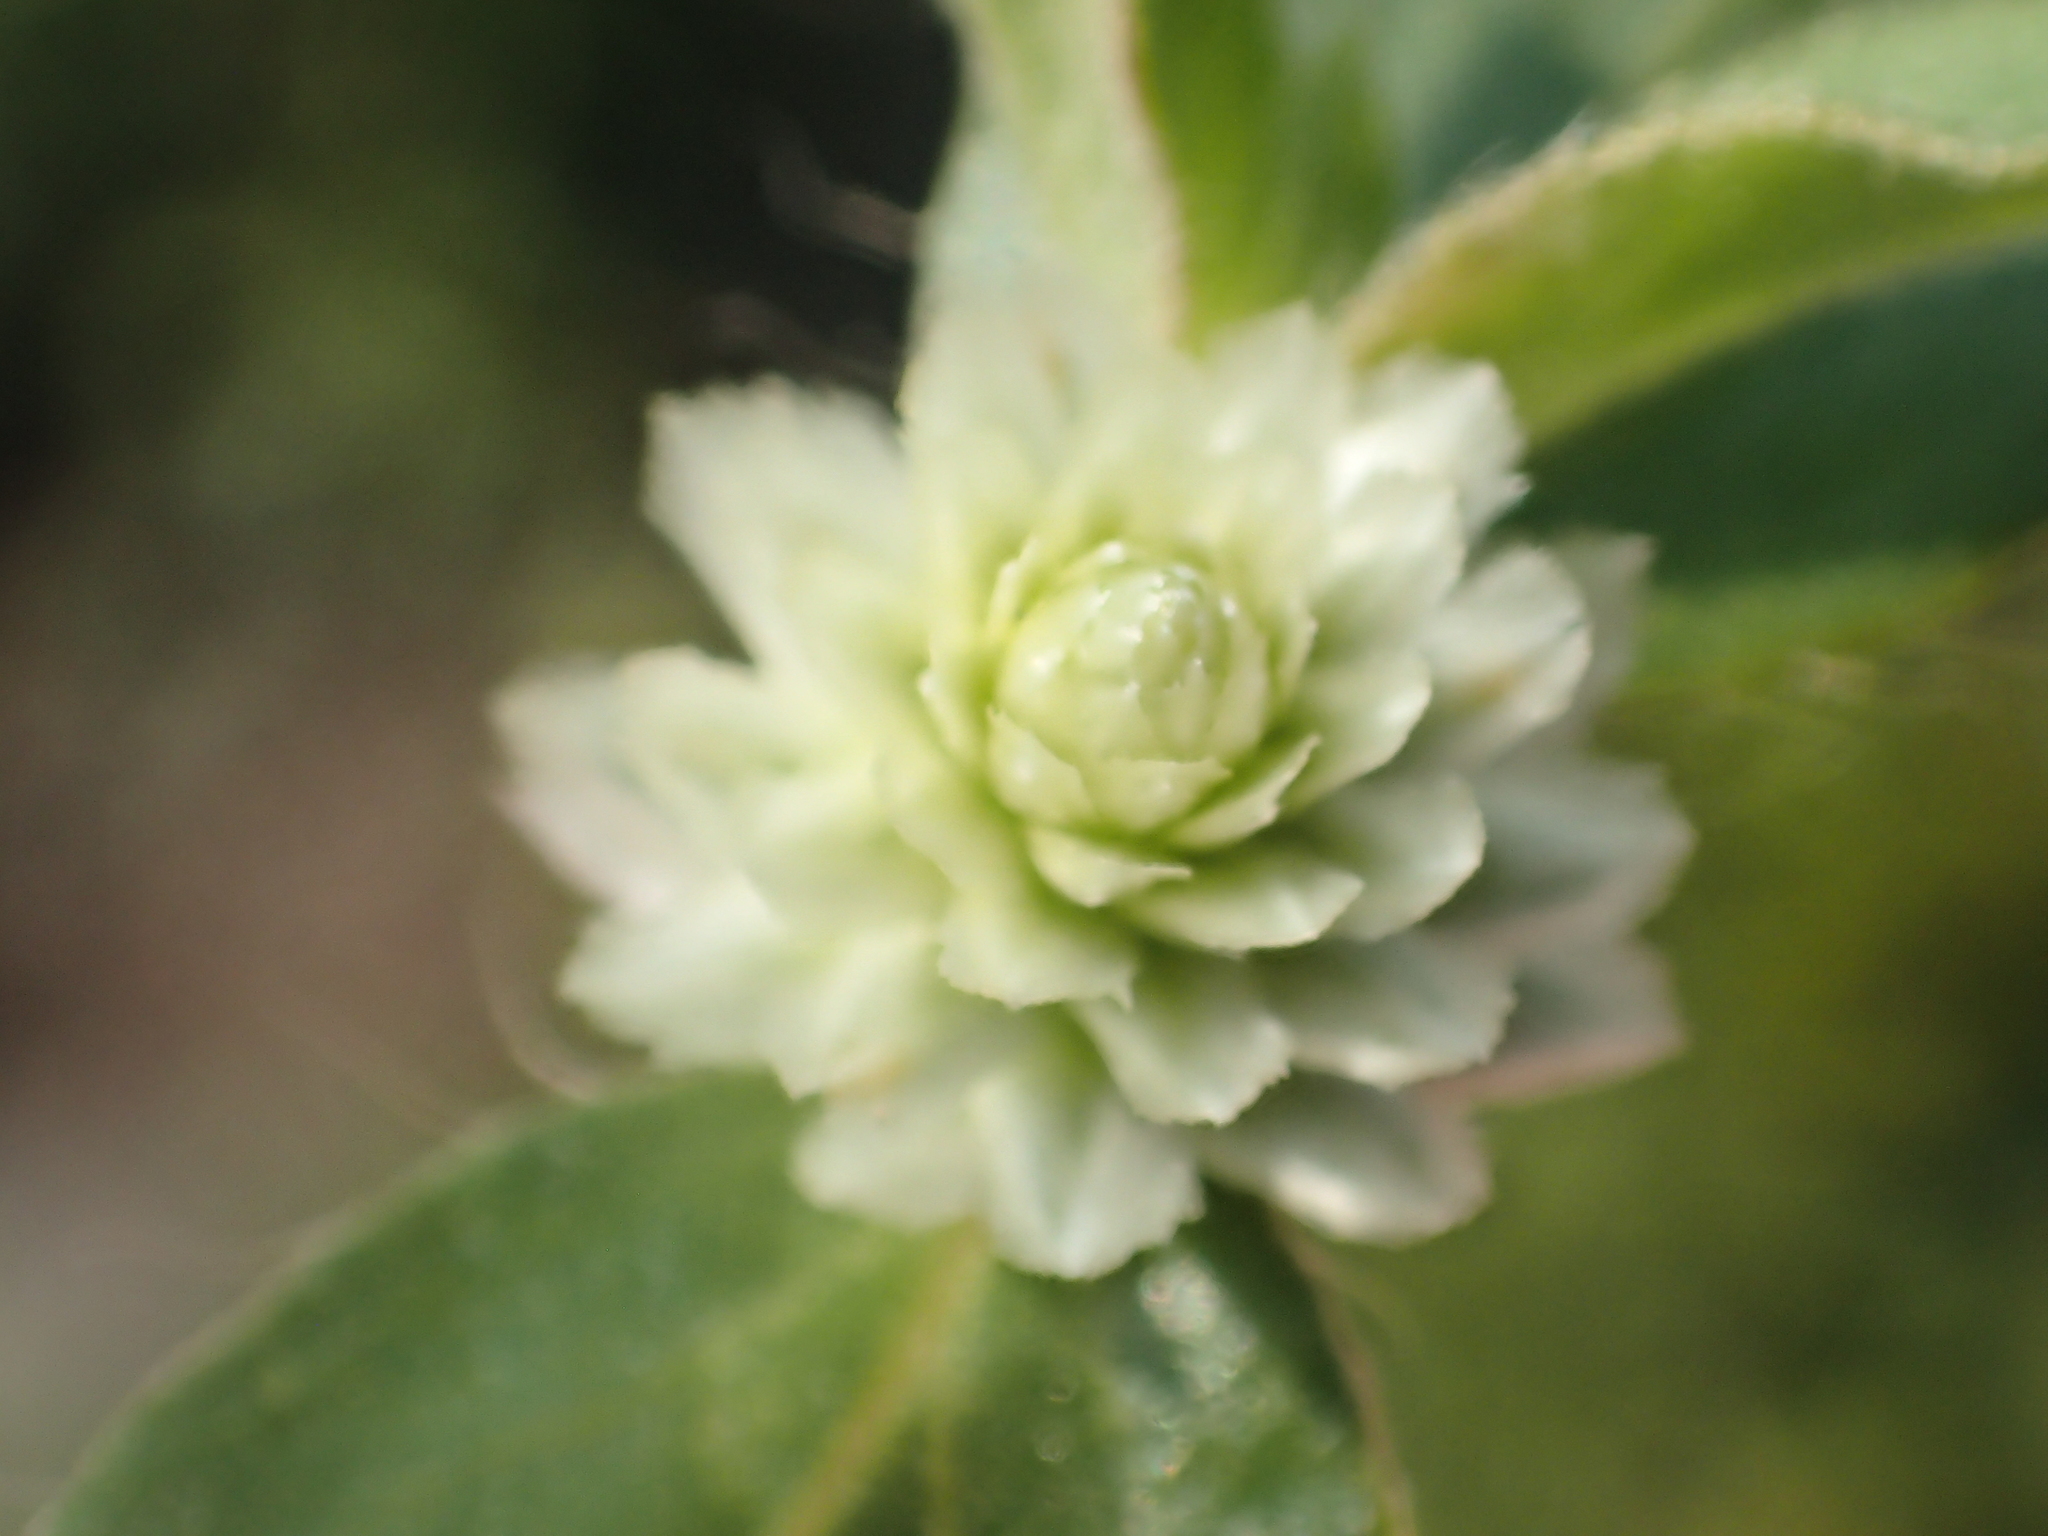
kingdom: Plantae
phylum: Tracheophyta
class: Magnoliopsida
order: Caryophyllales
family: Amaranthaceae
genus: Gomphrena
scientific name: Gomphrena celosioides
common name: Gomphrena-weed
